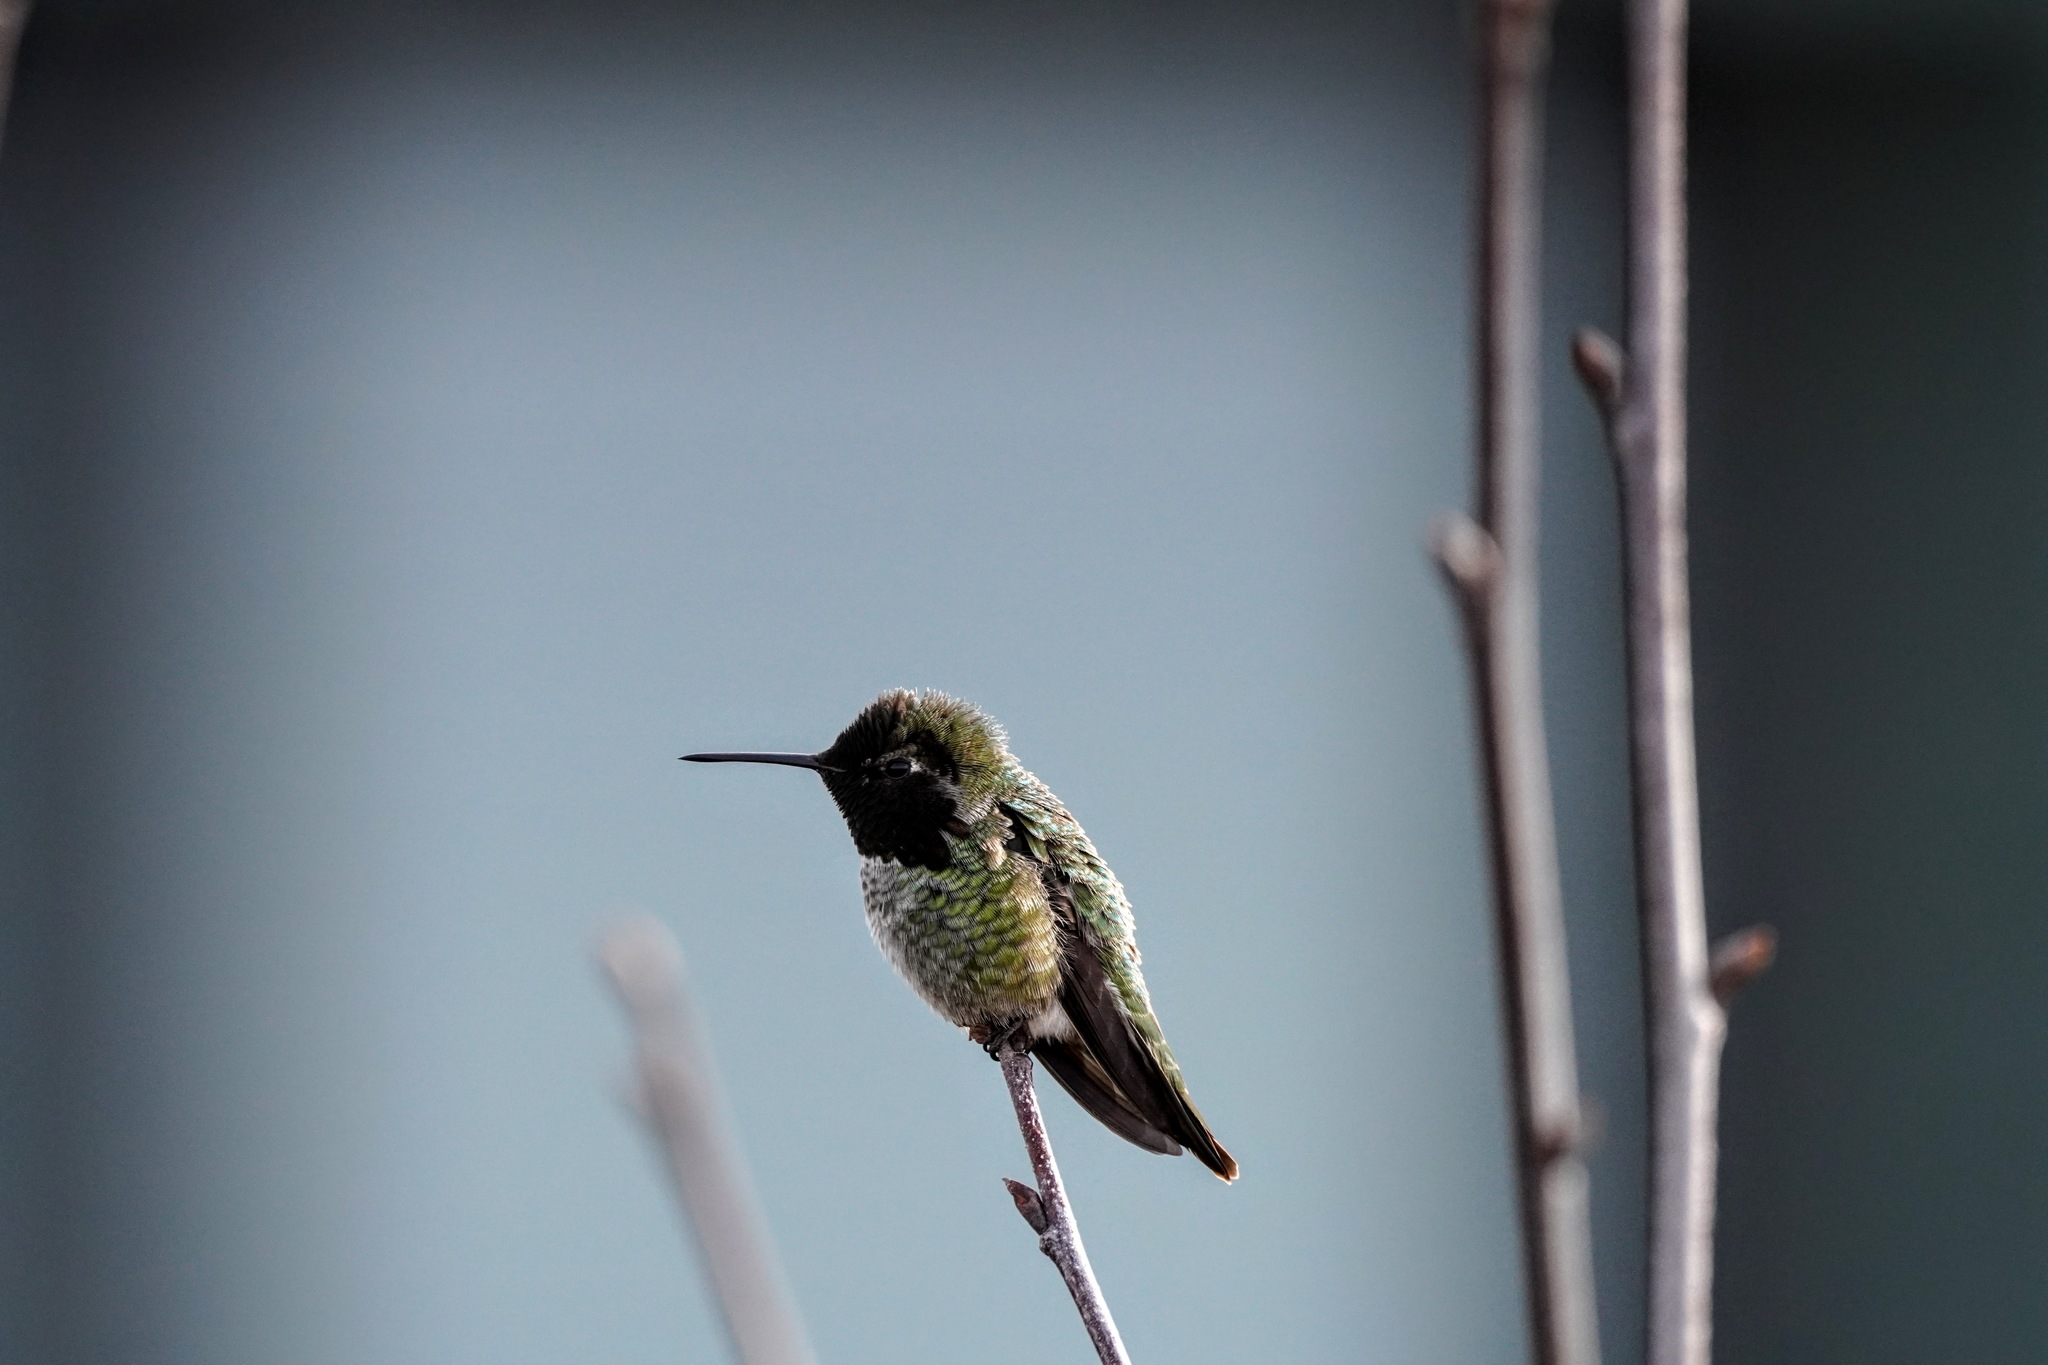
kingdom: Animalia
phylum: Chordata
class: Aves
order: Apodiformes
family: Trochilidae
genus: Calypte
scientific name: Calypte anna
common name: Anna's hummingbird
